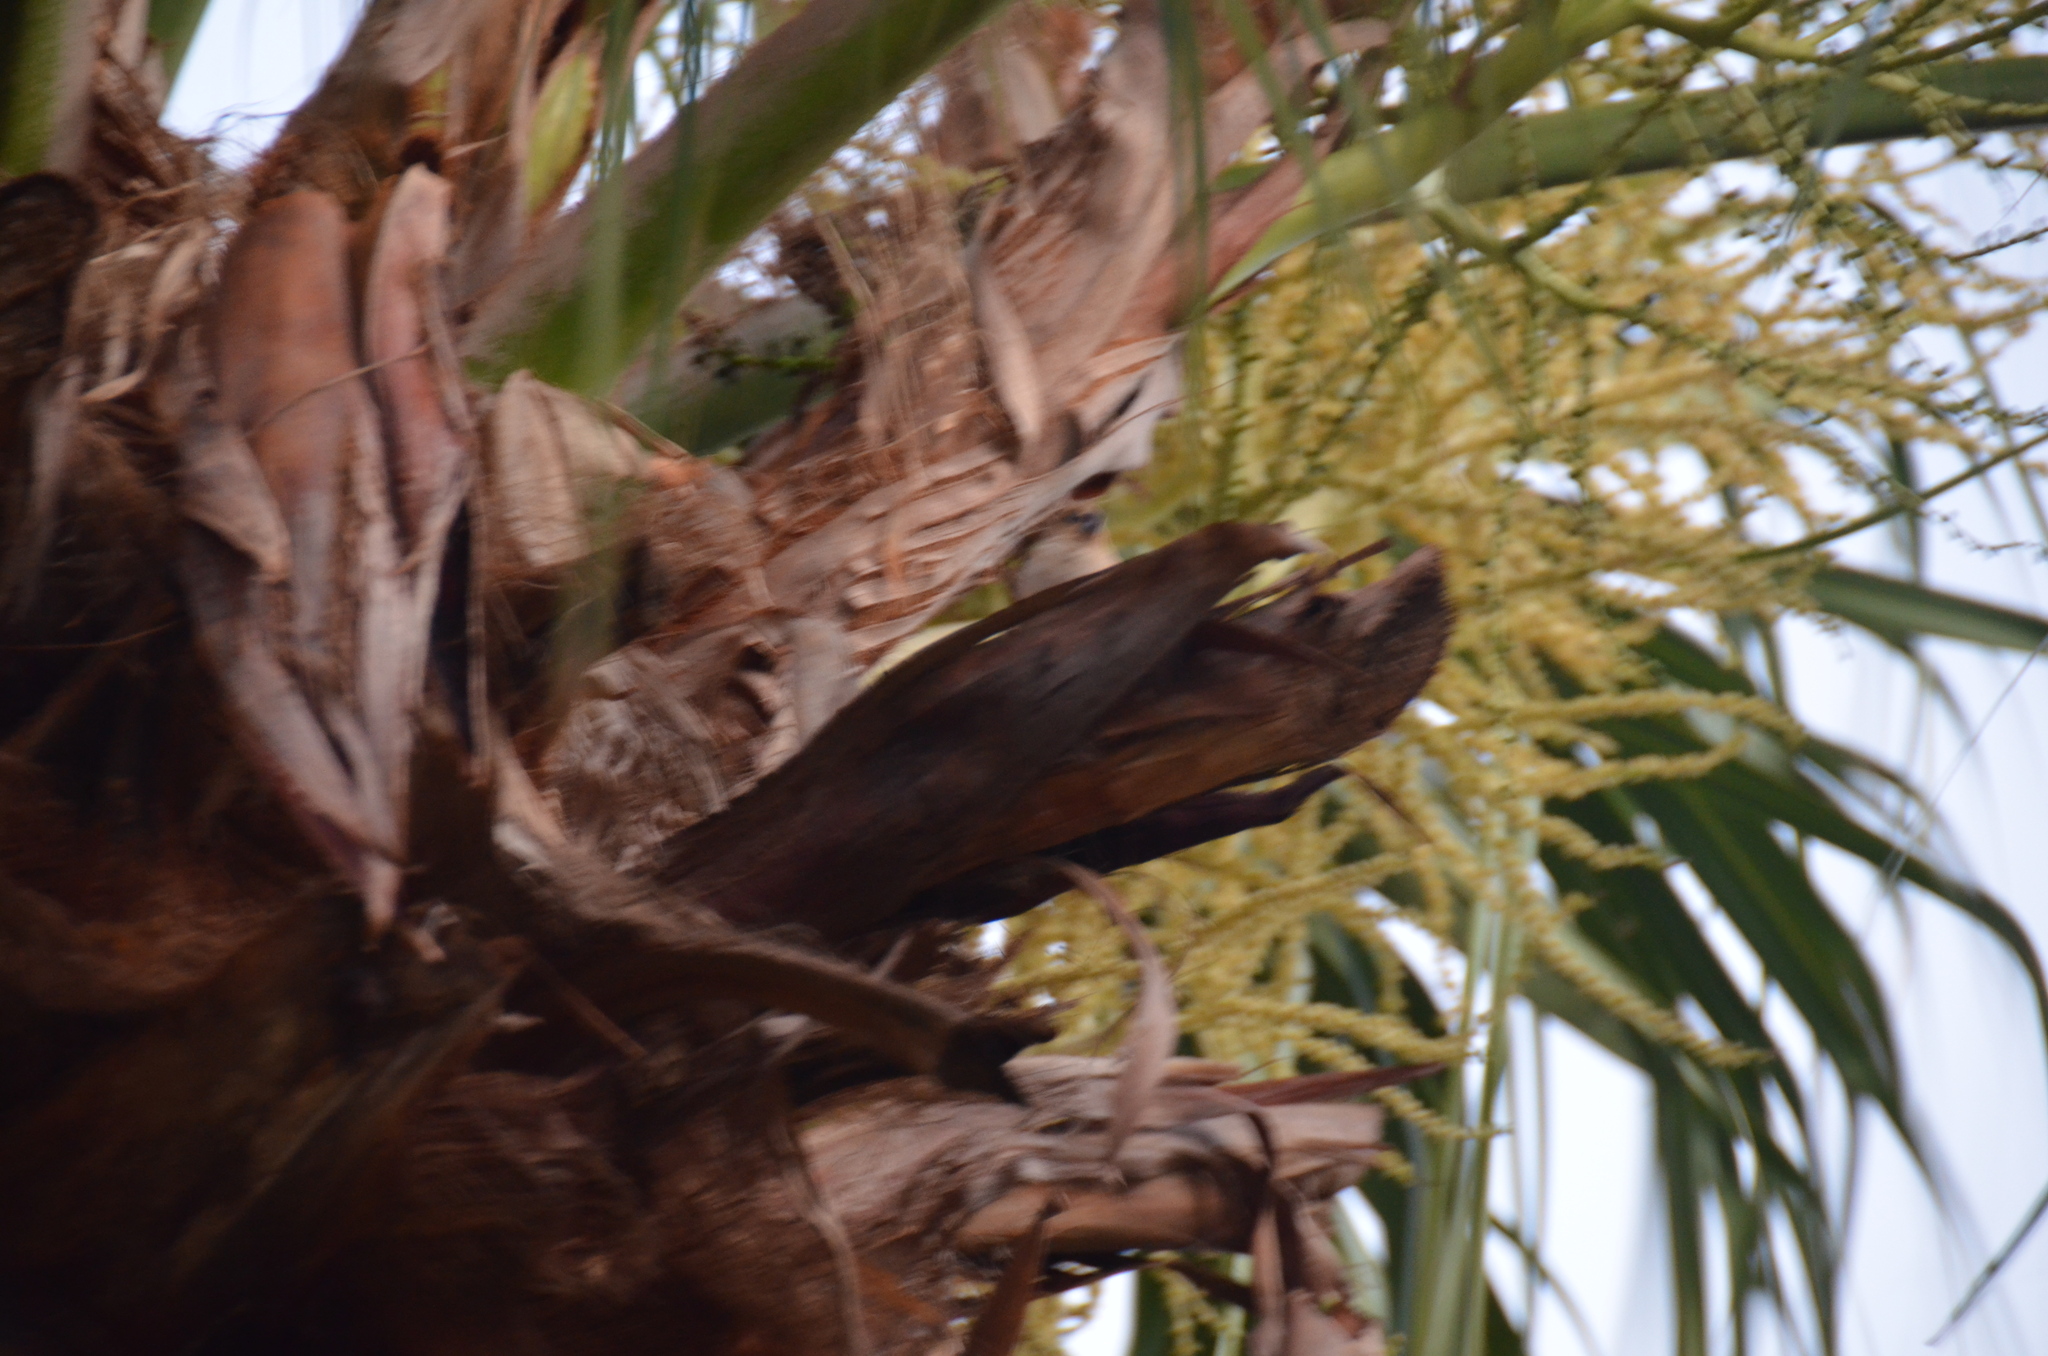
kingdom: Animalia
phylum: Chordata
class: Aves
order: Passeriformes
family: Estrildidae
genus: Euodice
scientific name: Euodice cantans
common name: African silverbill
